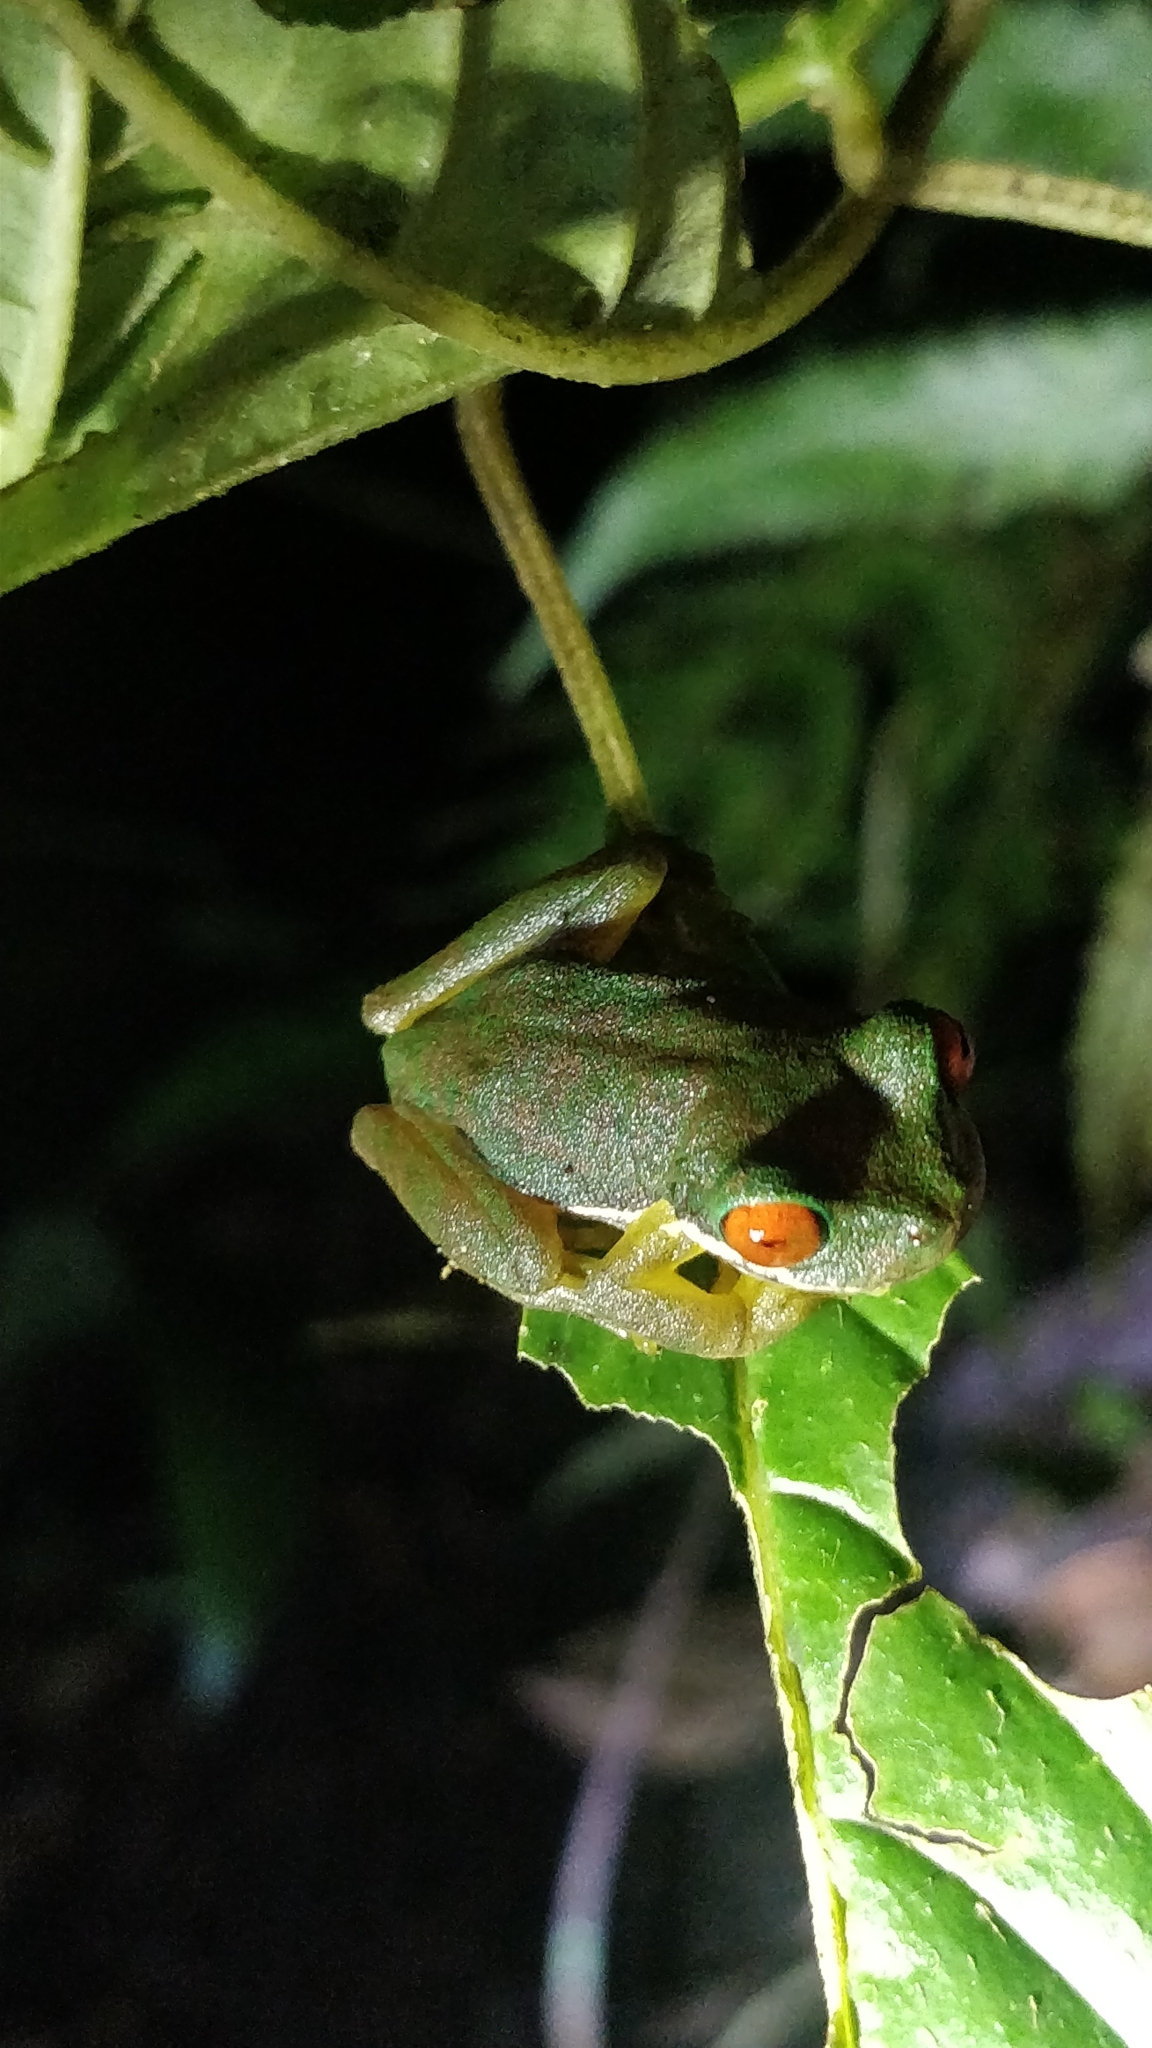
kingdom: Animalia
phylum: Chordata
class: Amphibia
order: Anura
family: Hylidae
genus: Duellmanohyla
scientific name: Duellmanohyla rufioculis
